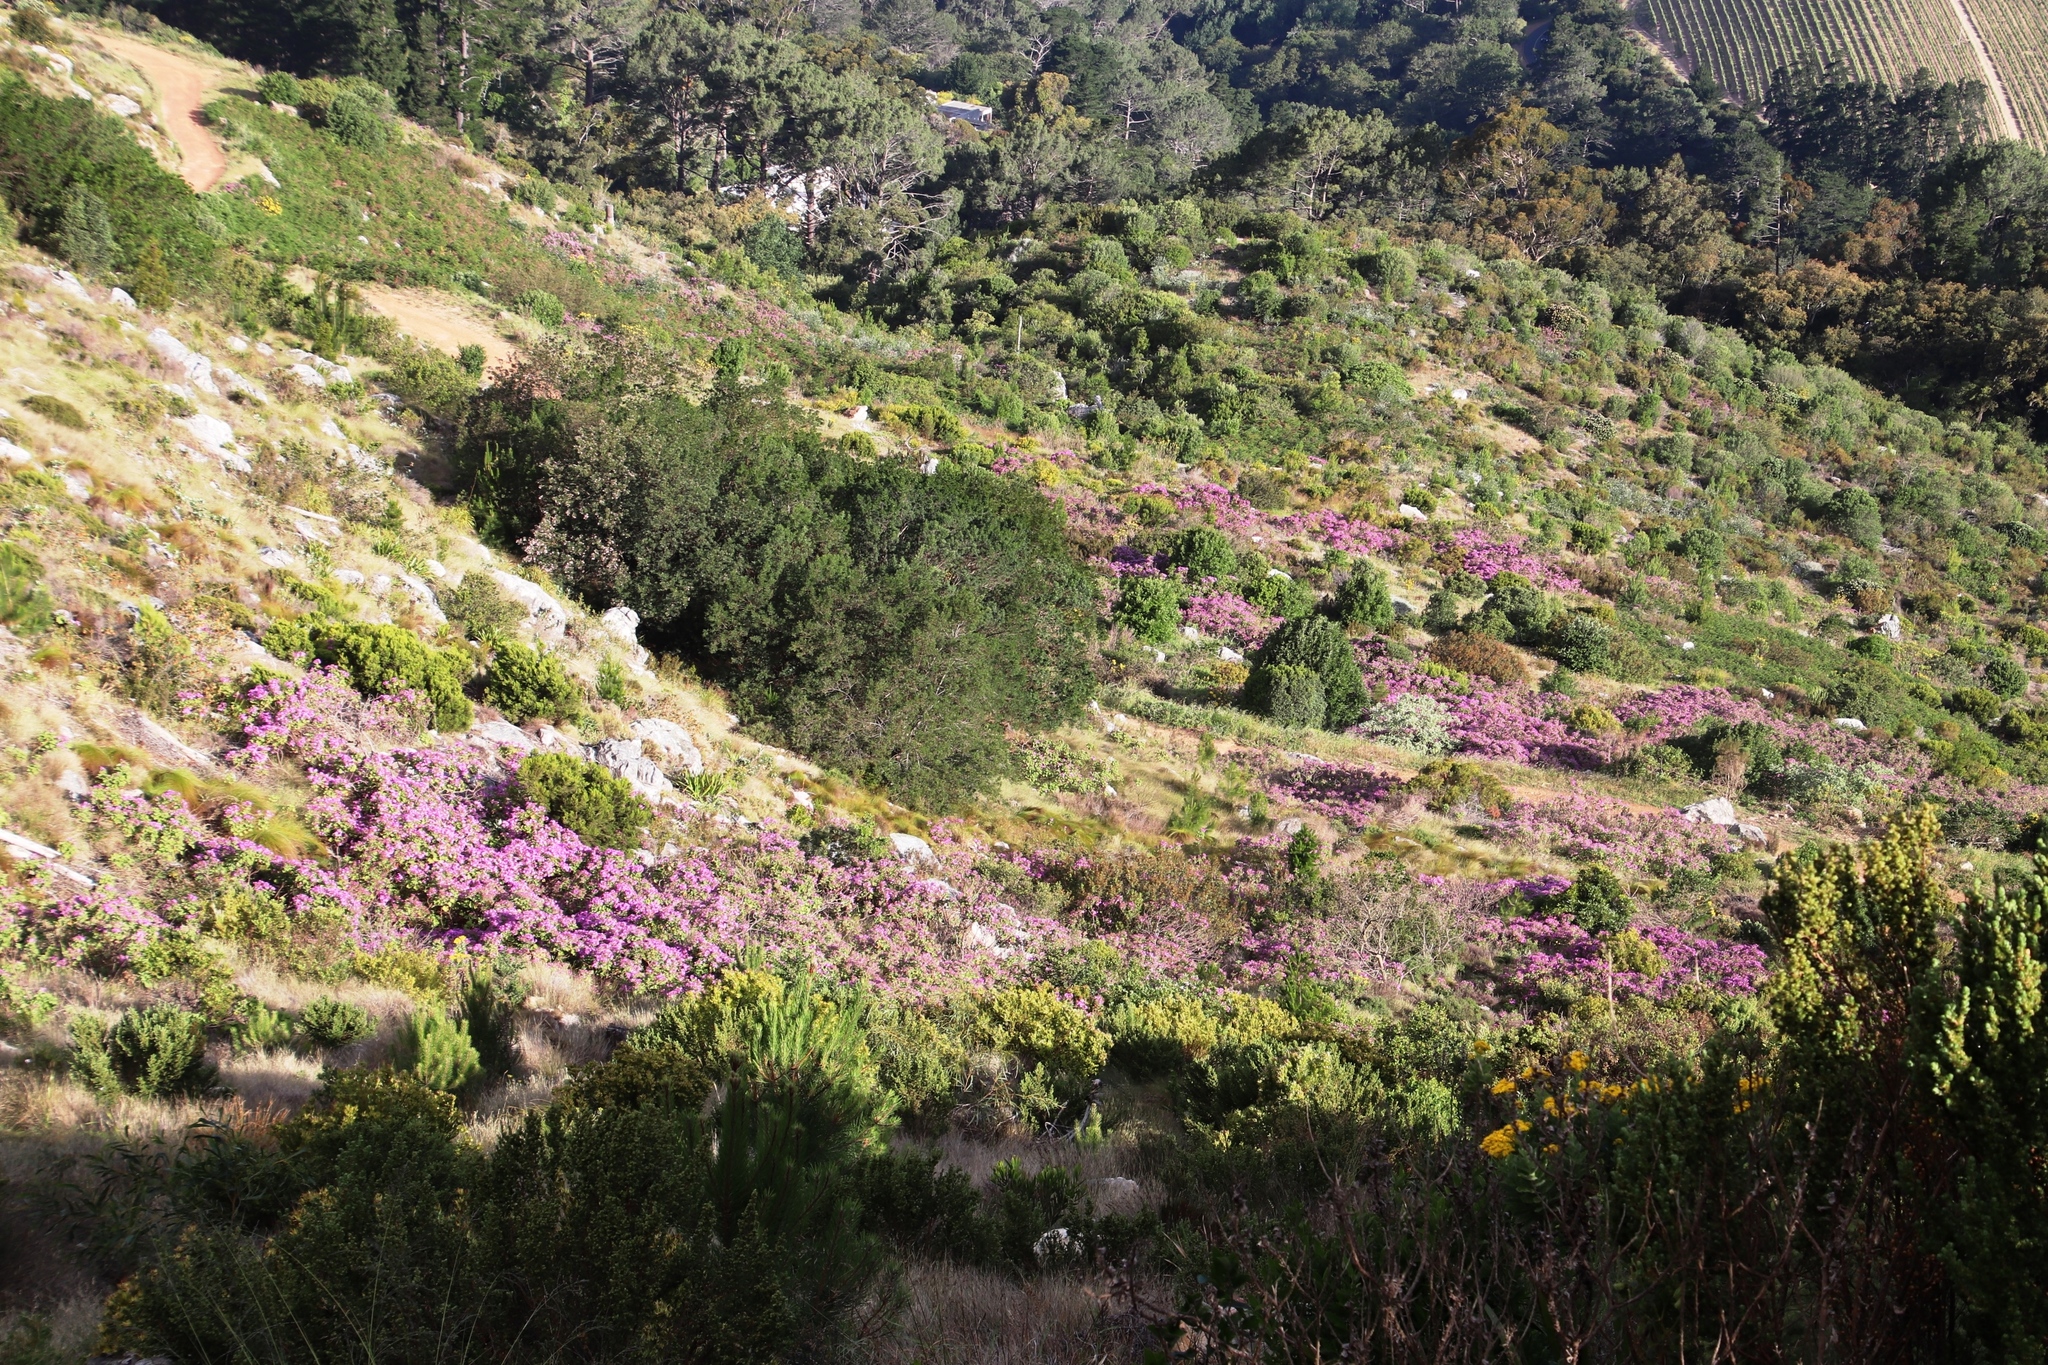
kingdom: Plantae
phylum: Tracheophyta
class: Magnoliopsida
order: Geraniales
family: Geraniaceae
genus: Pelargonium
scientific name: Pelargonium cucullatum
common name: Tree pelargonium
